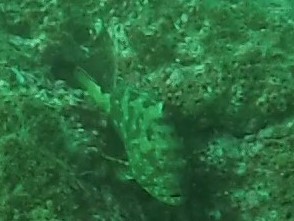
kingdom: Animalia
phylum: Chordata
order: Perciformes
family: Serranidae
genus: Epinephelus
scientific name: Epinephelus labriformis
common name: Flag cabrilla
